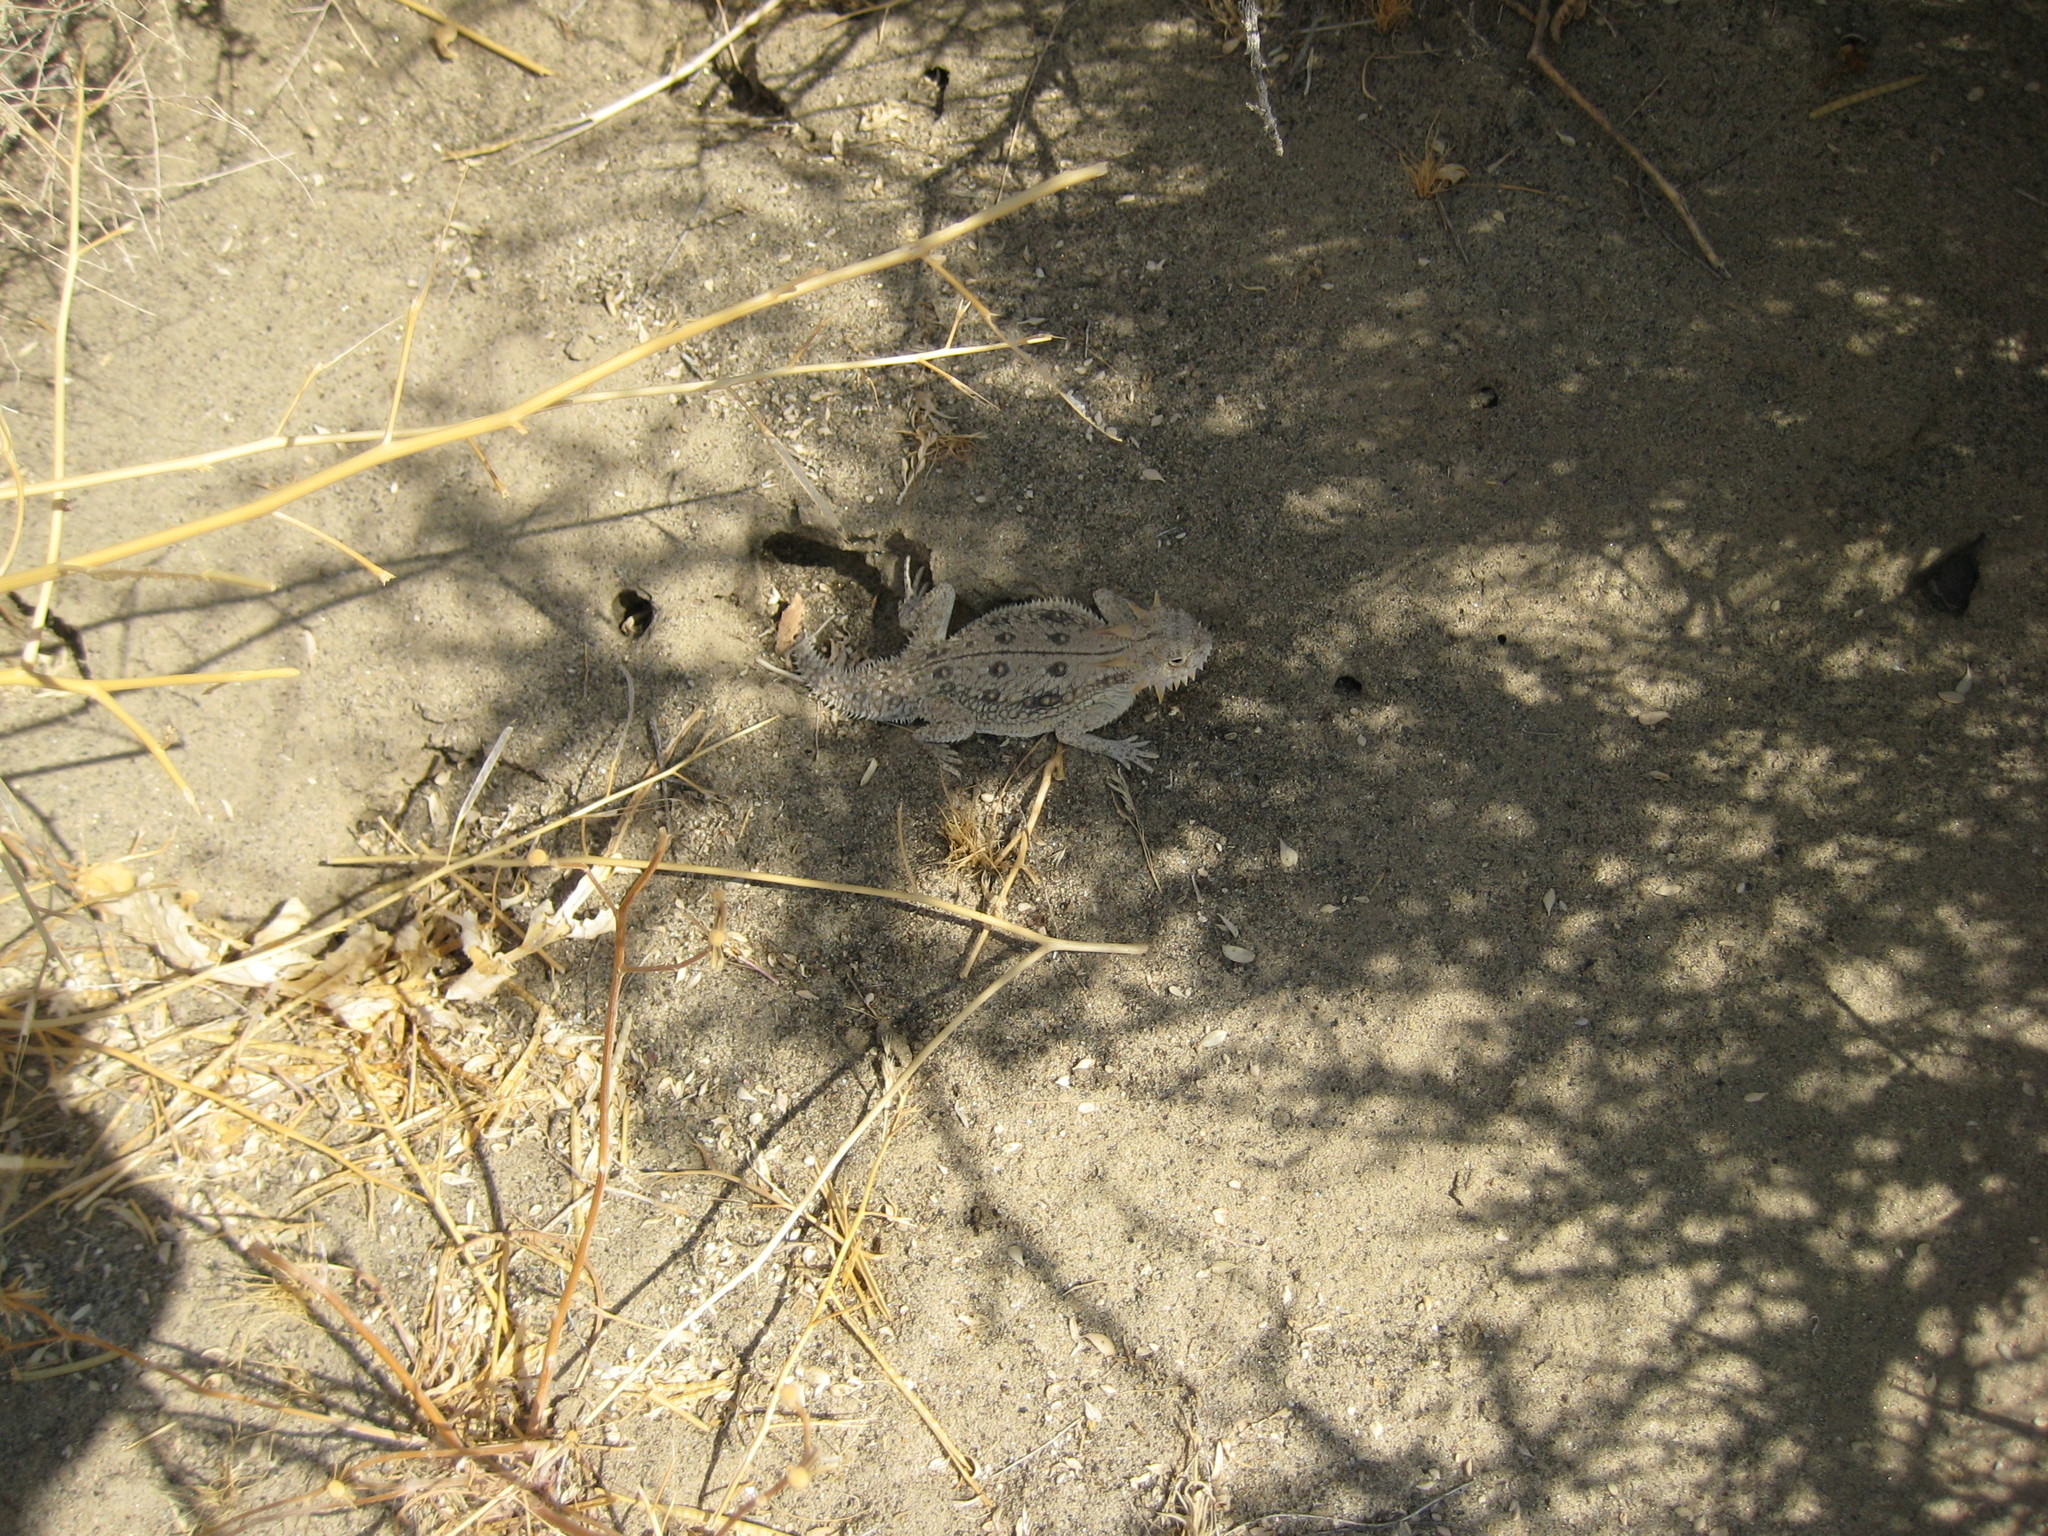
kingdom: Animalia
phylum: Chordata
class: Squamata
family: Phrynosomatidae
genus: Phrynosoma
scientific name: Phrynosoma mcallii
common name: Flat-tailed horned lizard
